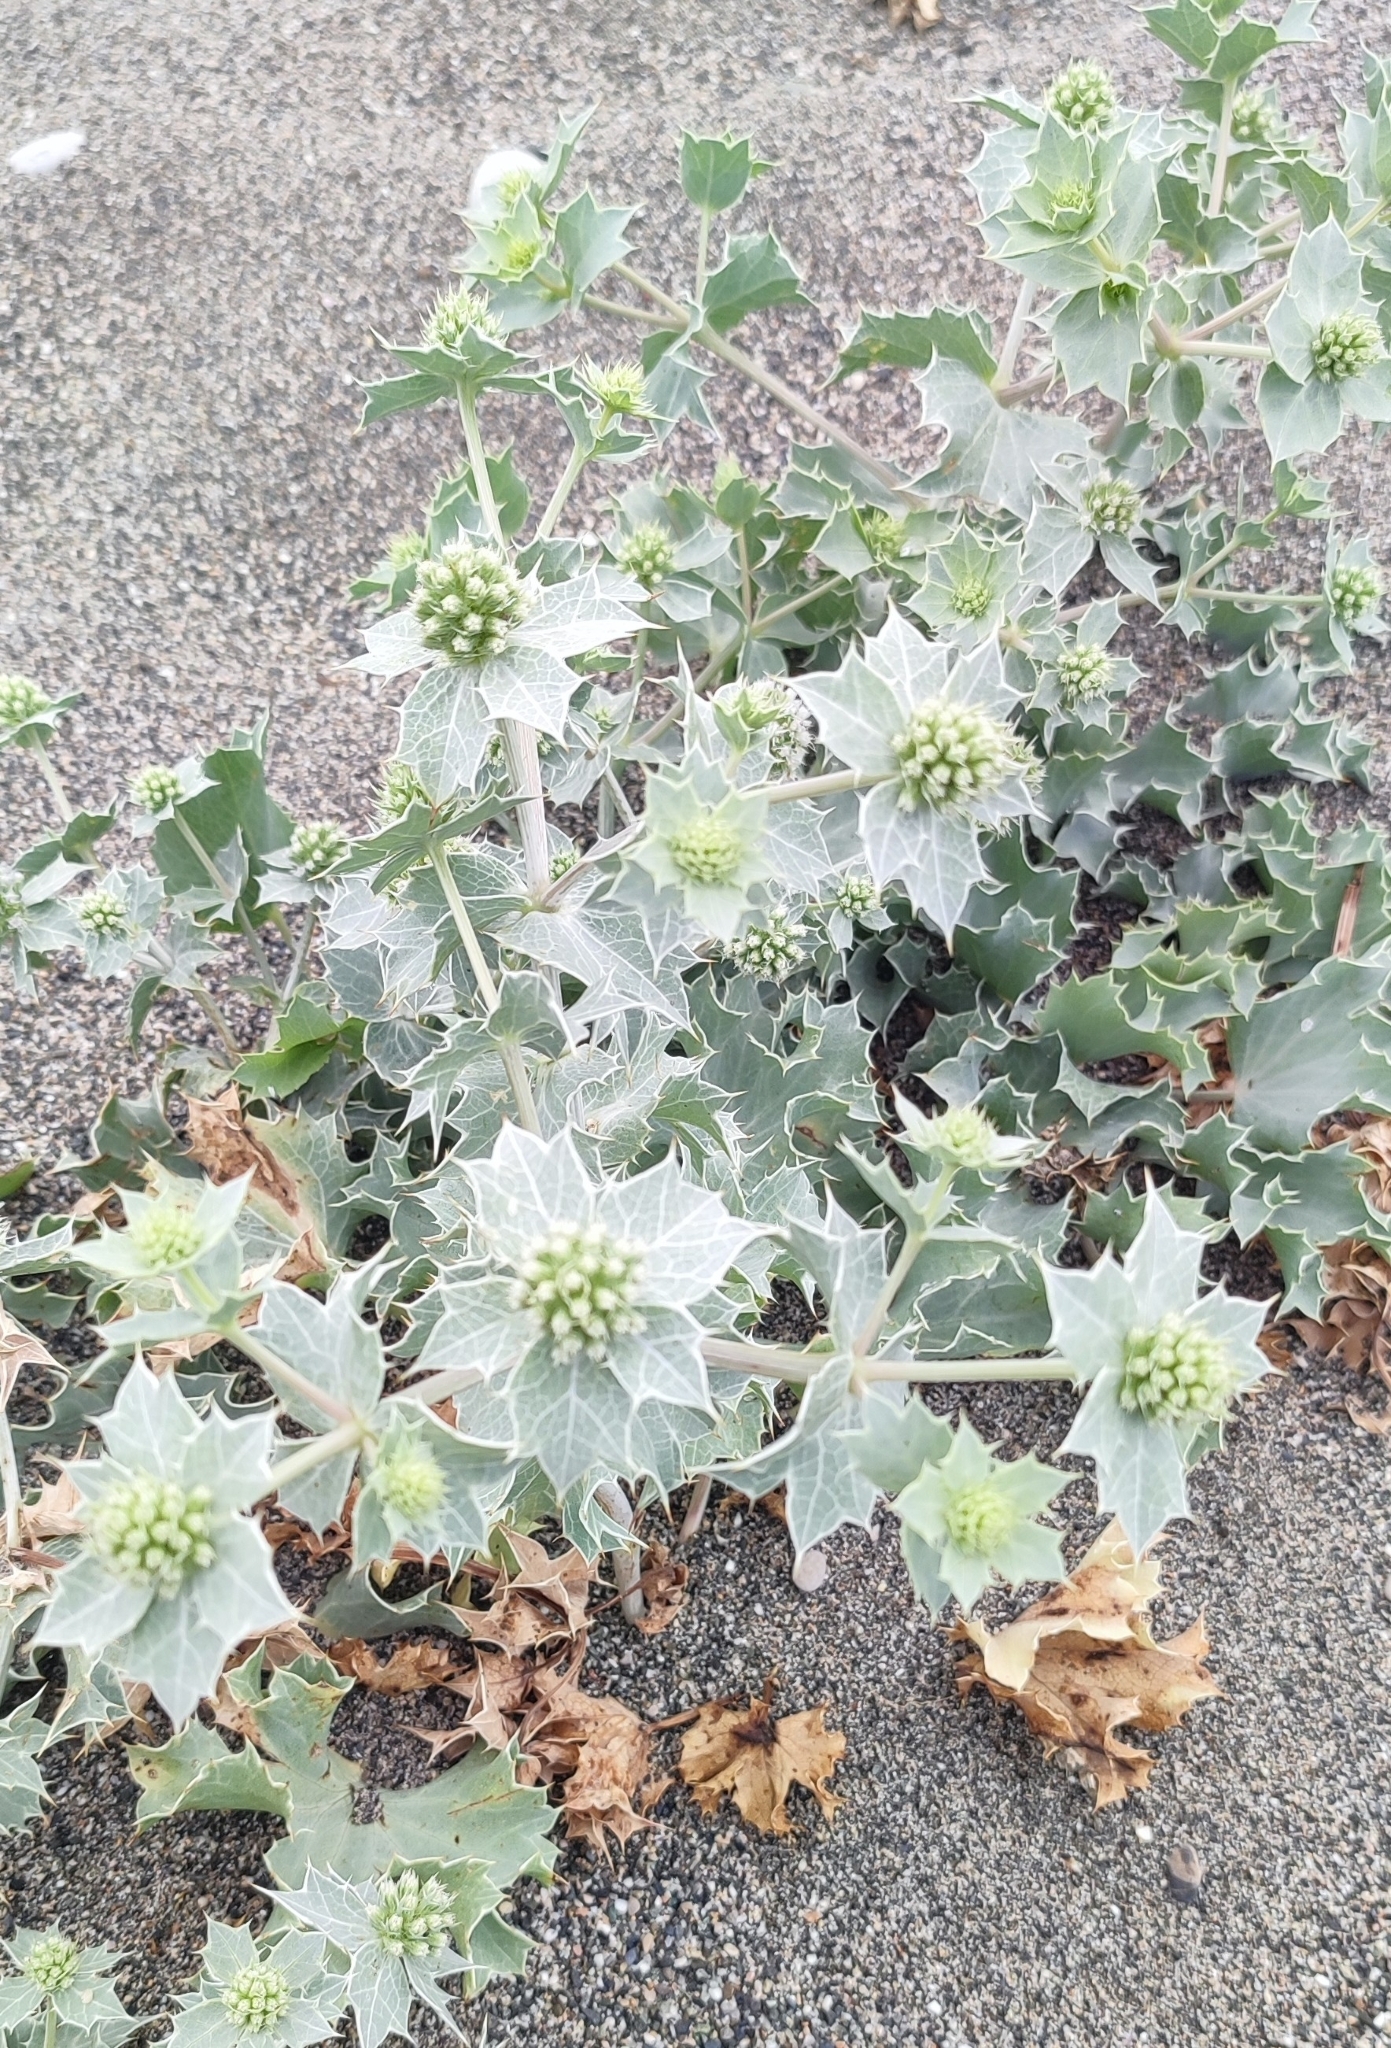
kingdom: Plantae
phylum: Tracheophyta
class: Magnoliopsida
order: Apiales
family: Apiaceae
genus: Eryngium
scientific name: Eryngium maritimum
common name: Sea-holly
